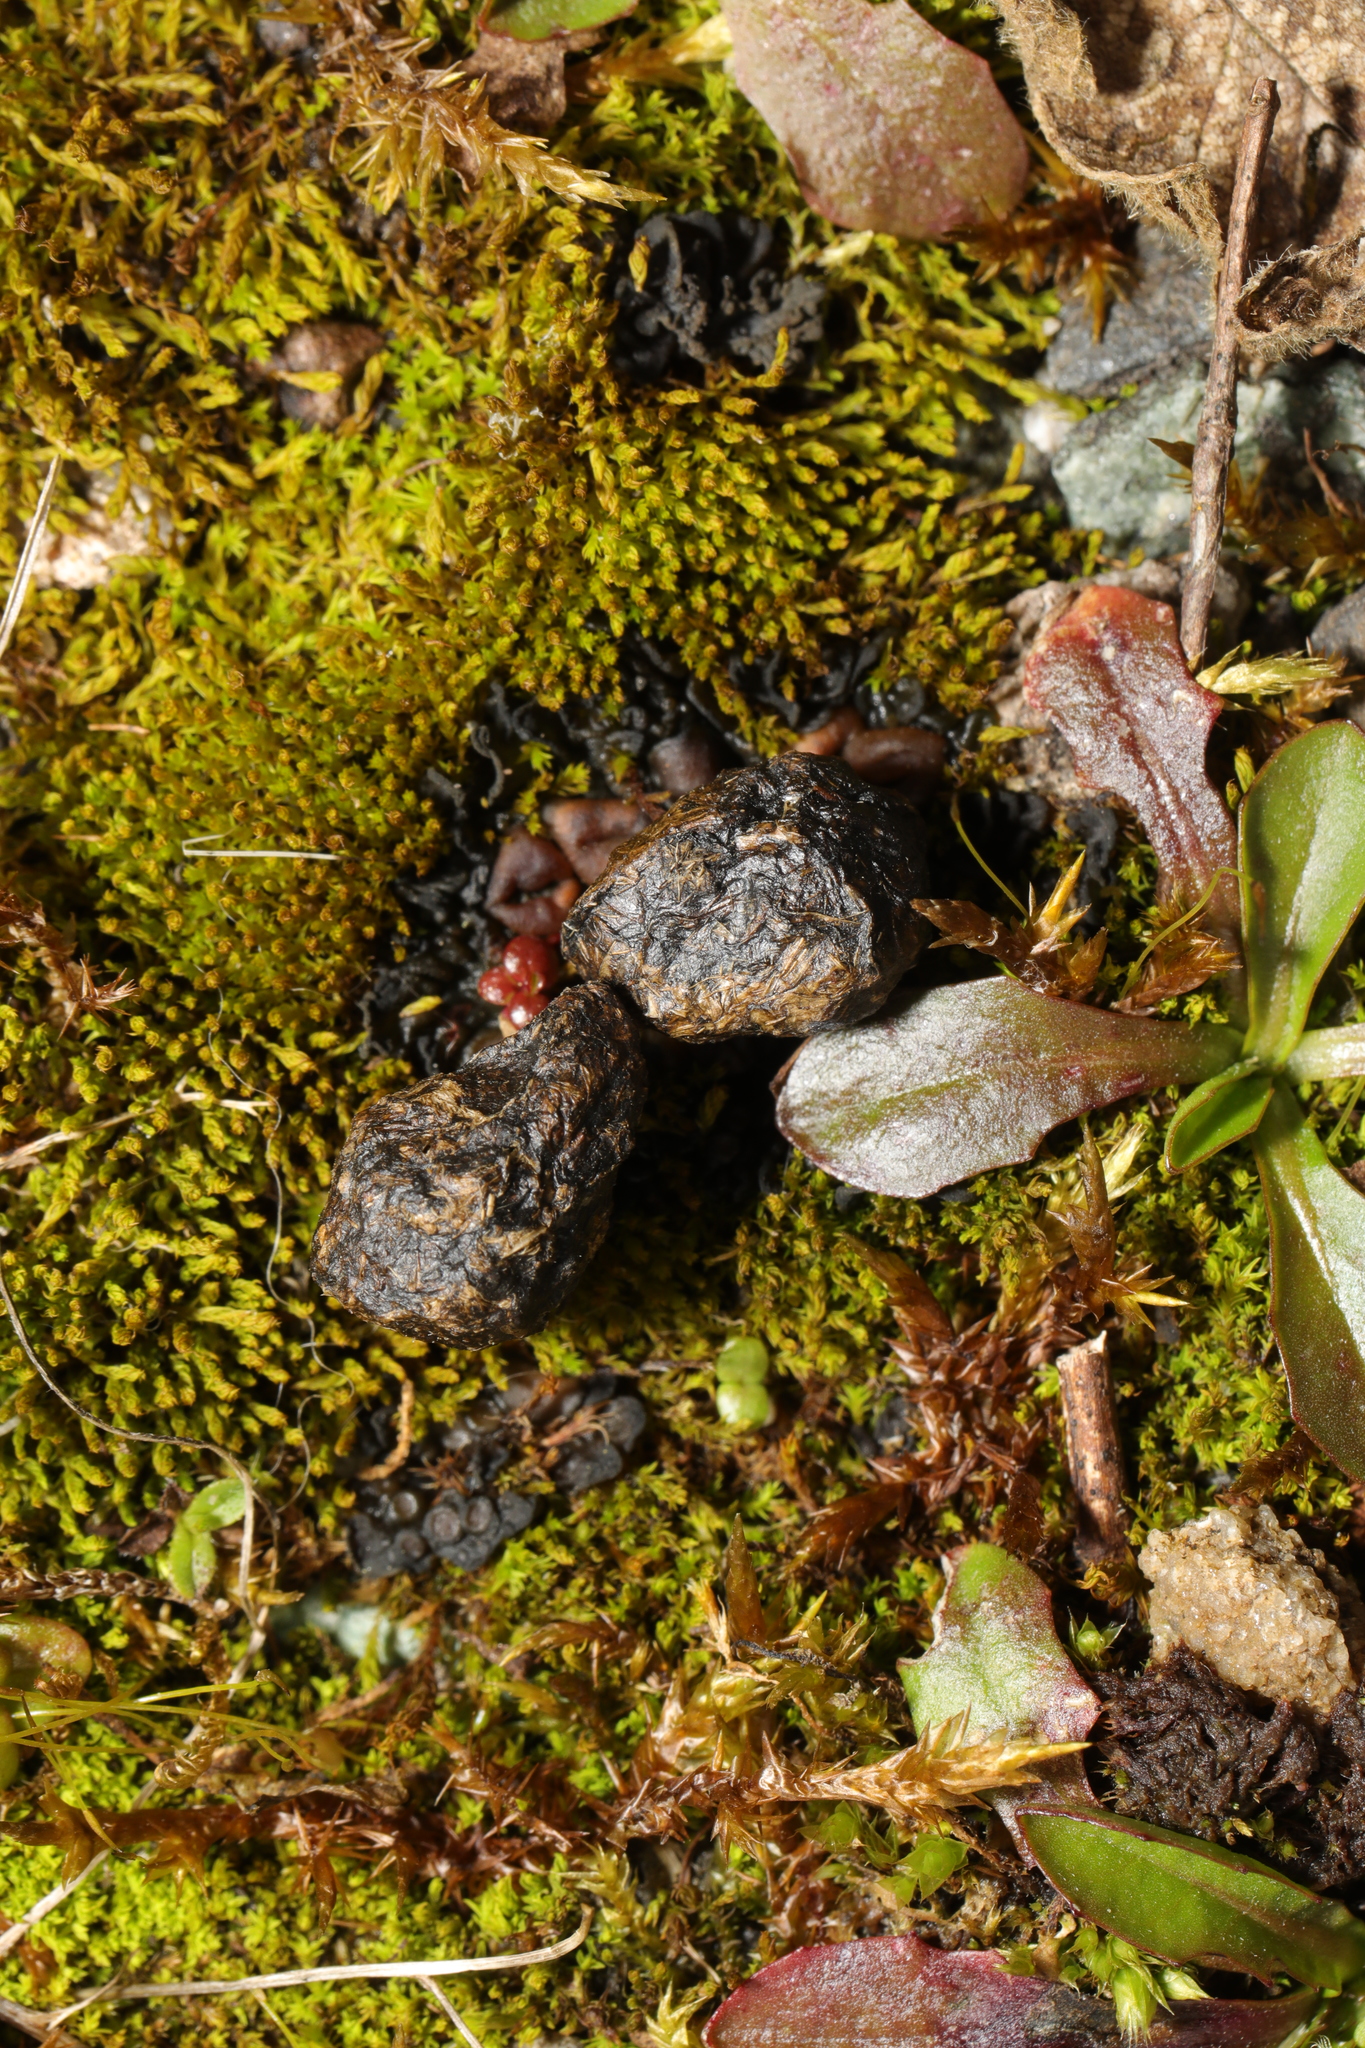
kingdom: Animalia
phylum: Chordata
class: Mammalia
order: Lagomorpha
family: Leporidae
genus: Oryctolagus
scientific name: Oryctolagus cuniculus
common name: European rabbit
